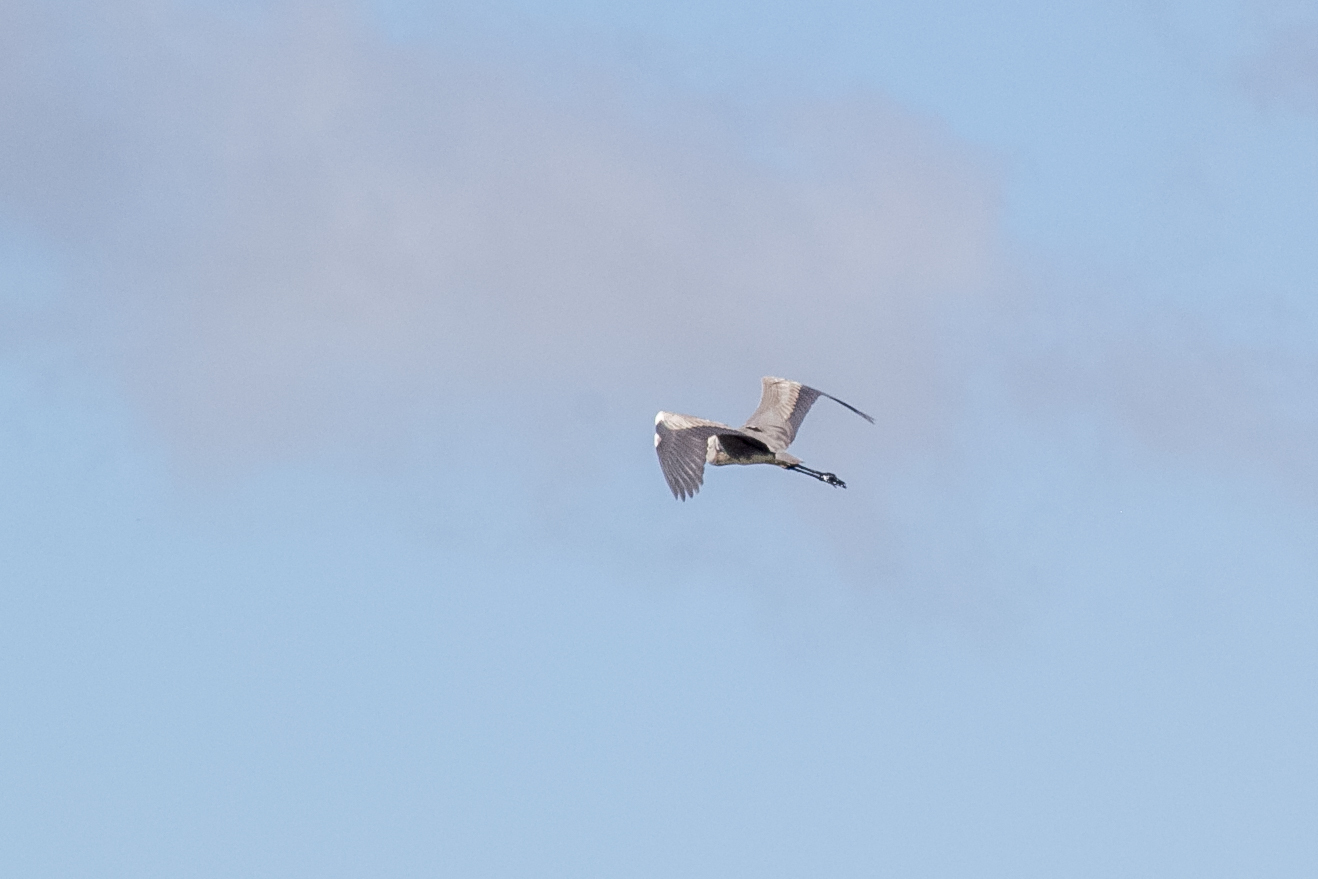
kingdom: Animalia
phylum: Chordata
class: Aves
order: Pelecaniformes
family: Ardeidae
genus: Ardea
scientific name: Ardea cinerea
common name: Grey heron
